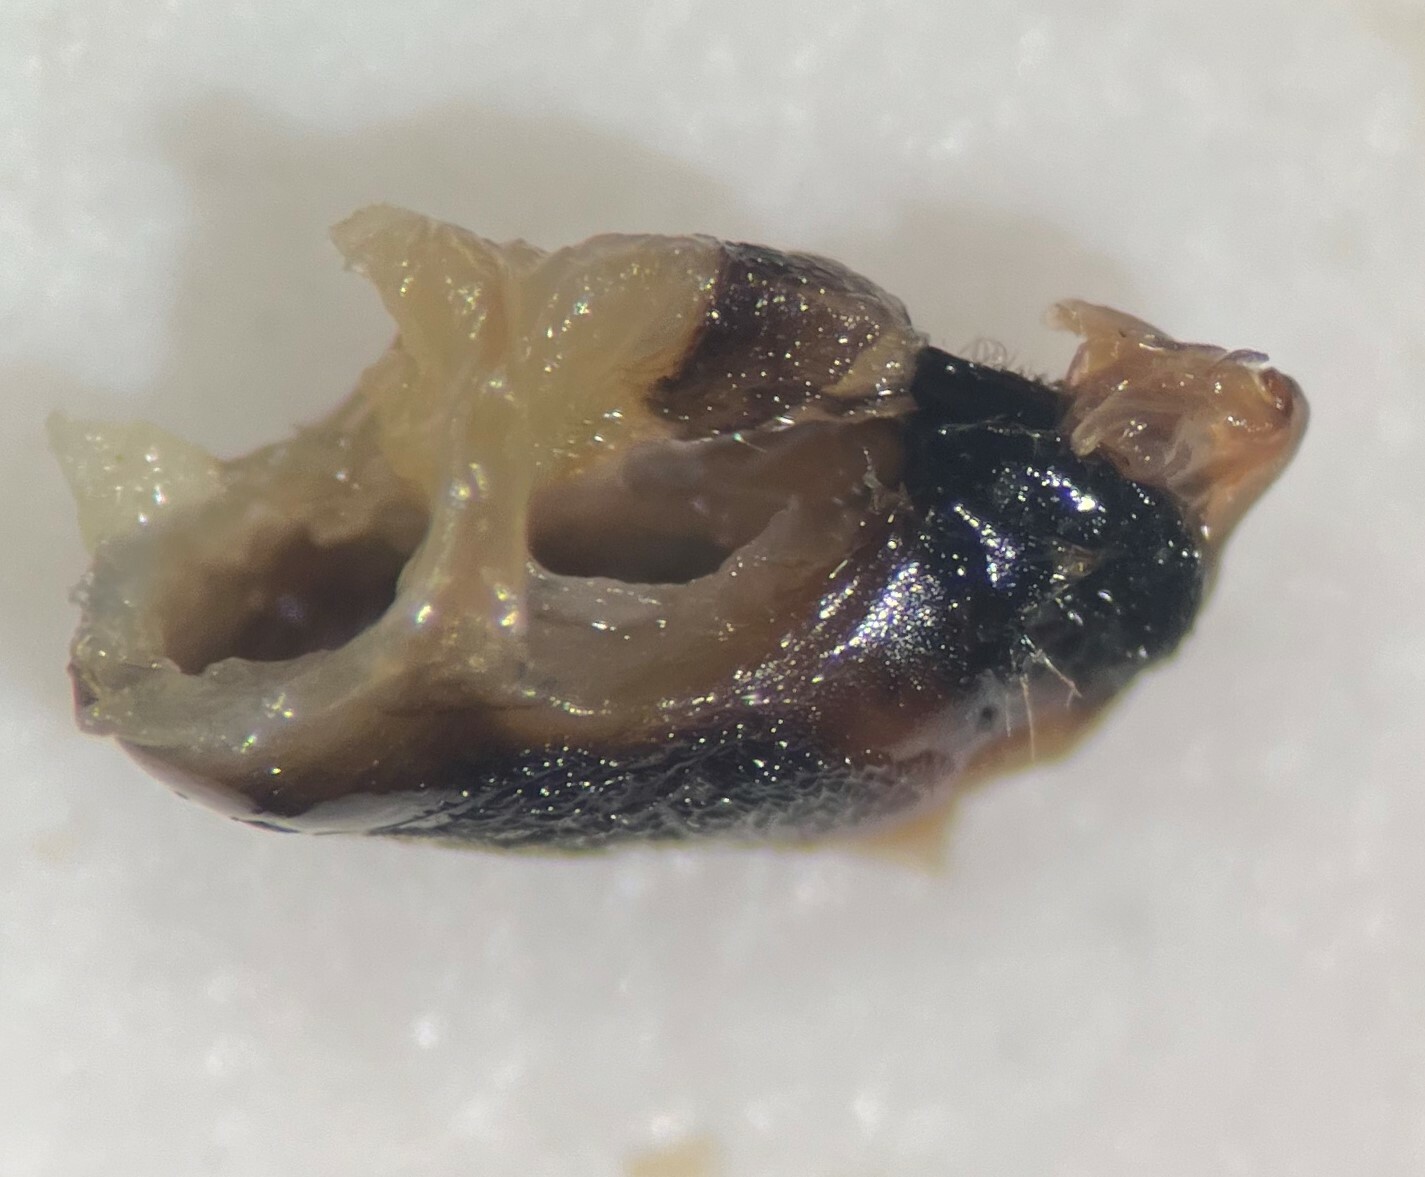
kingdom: Animalia
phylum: Arthropoda
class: Insecta
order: Hemiptera
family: Notonectidae
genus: Notonecta
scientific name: Notonecta unifasciata
